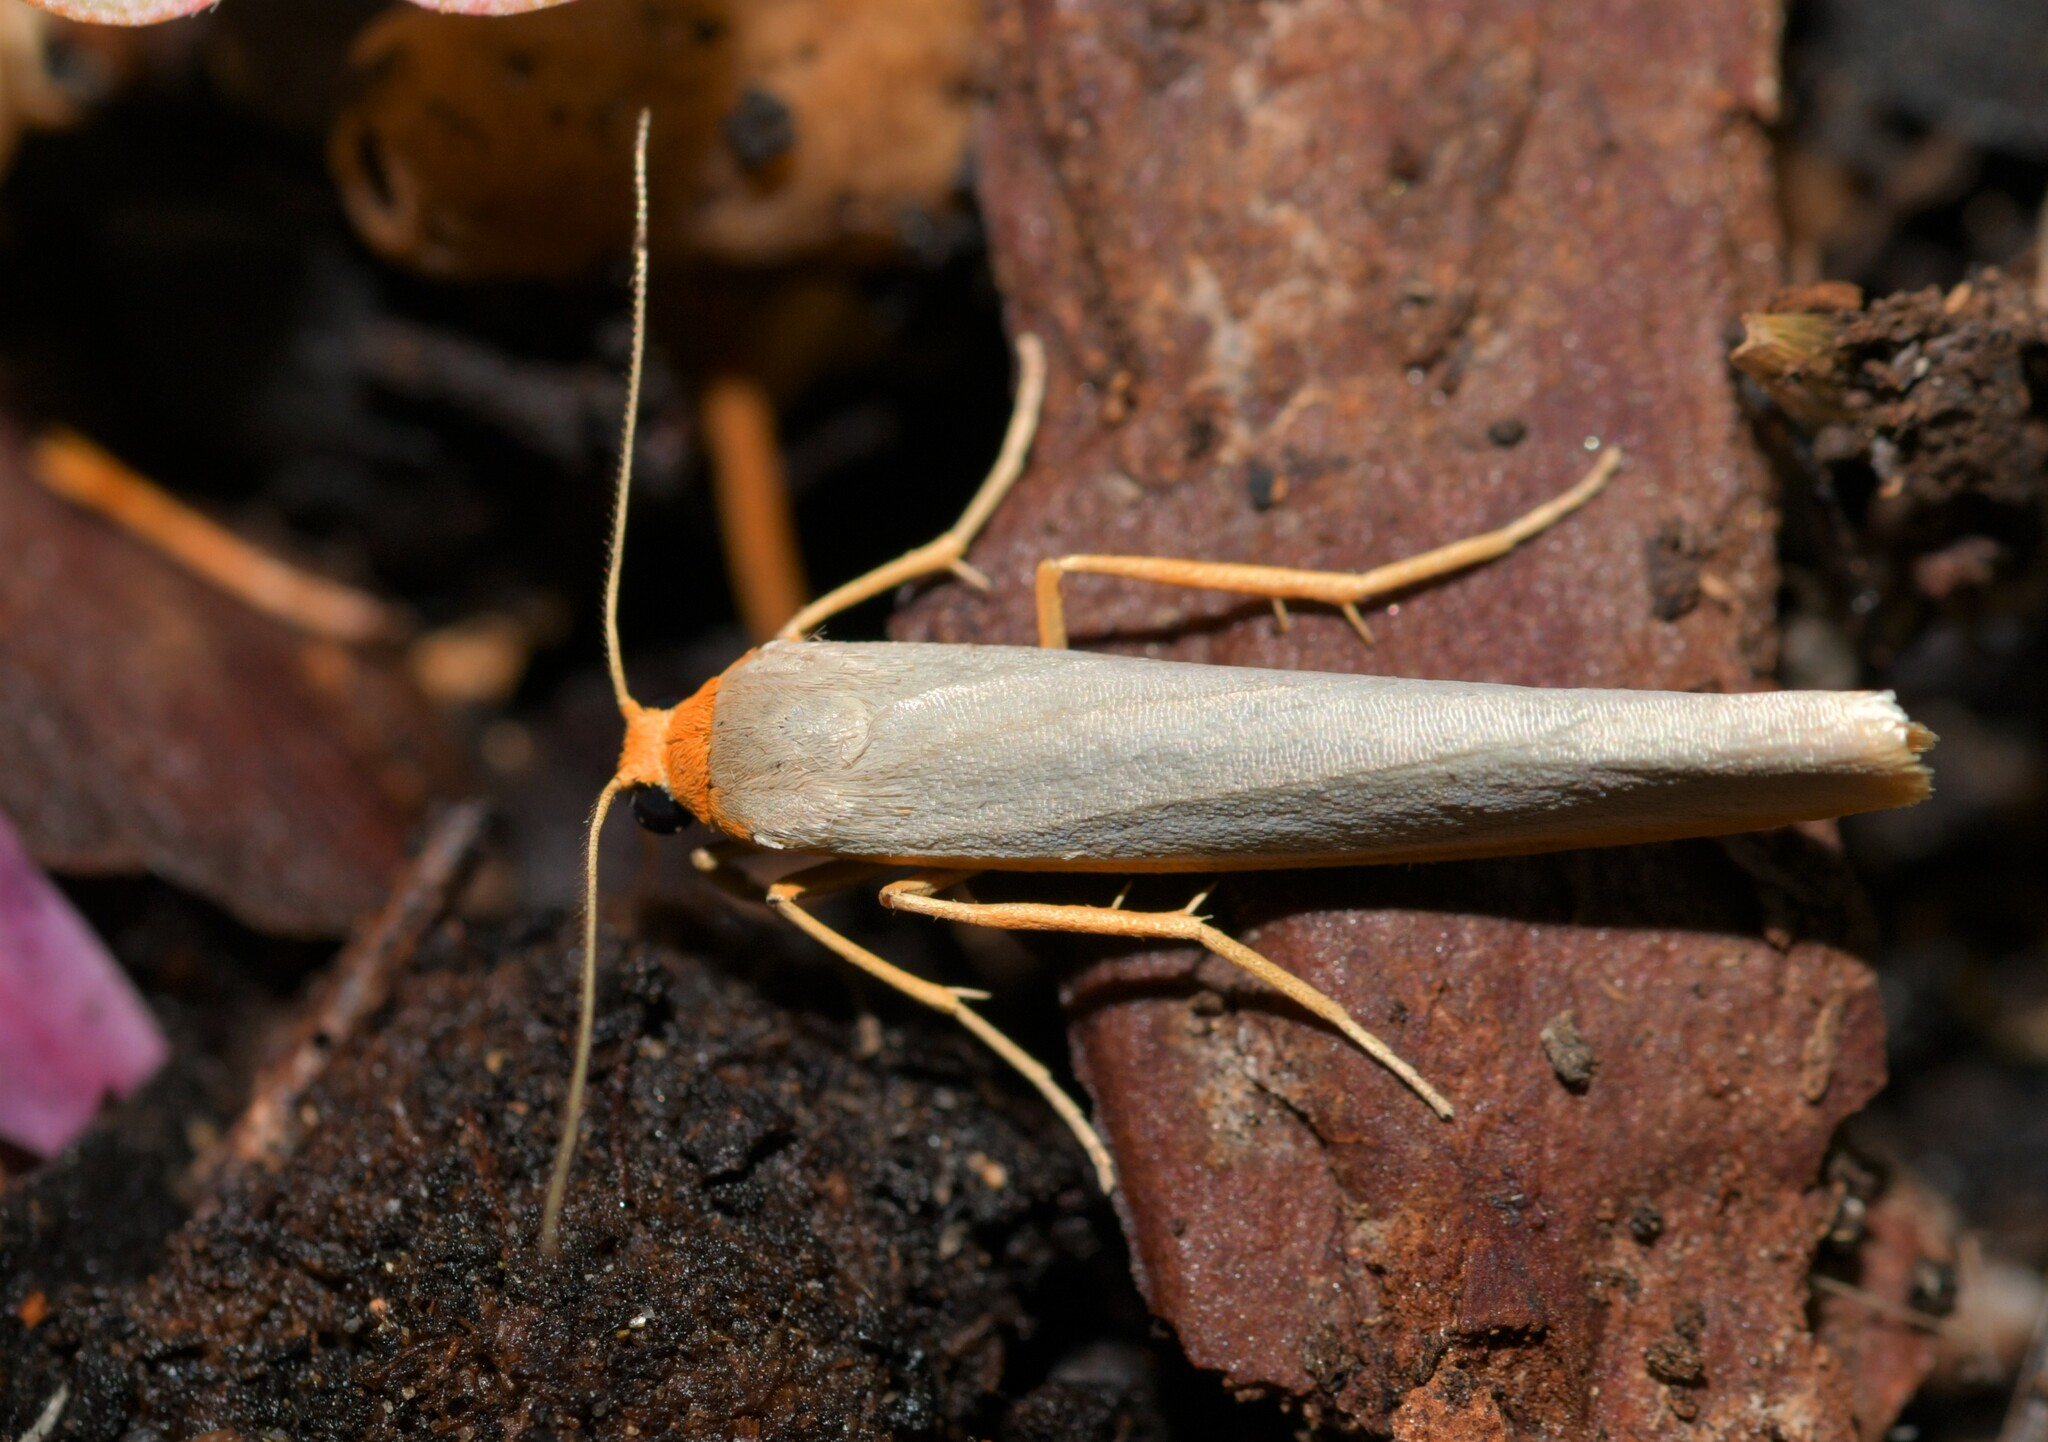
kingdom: Animalia
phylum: Arthropoda
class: Insecta
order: Lepidoptera
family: Erebidae
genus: Eilema
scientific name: Eilema caniola
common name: Hoary footman
